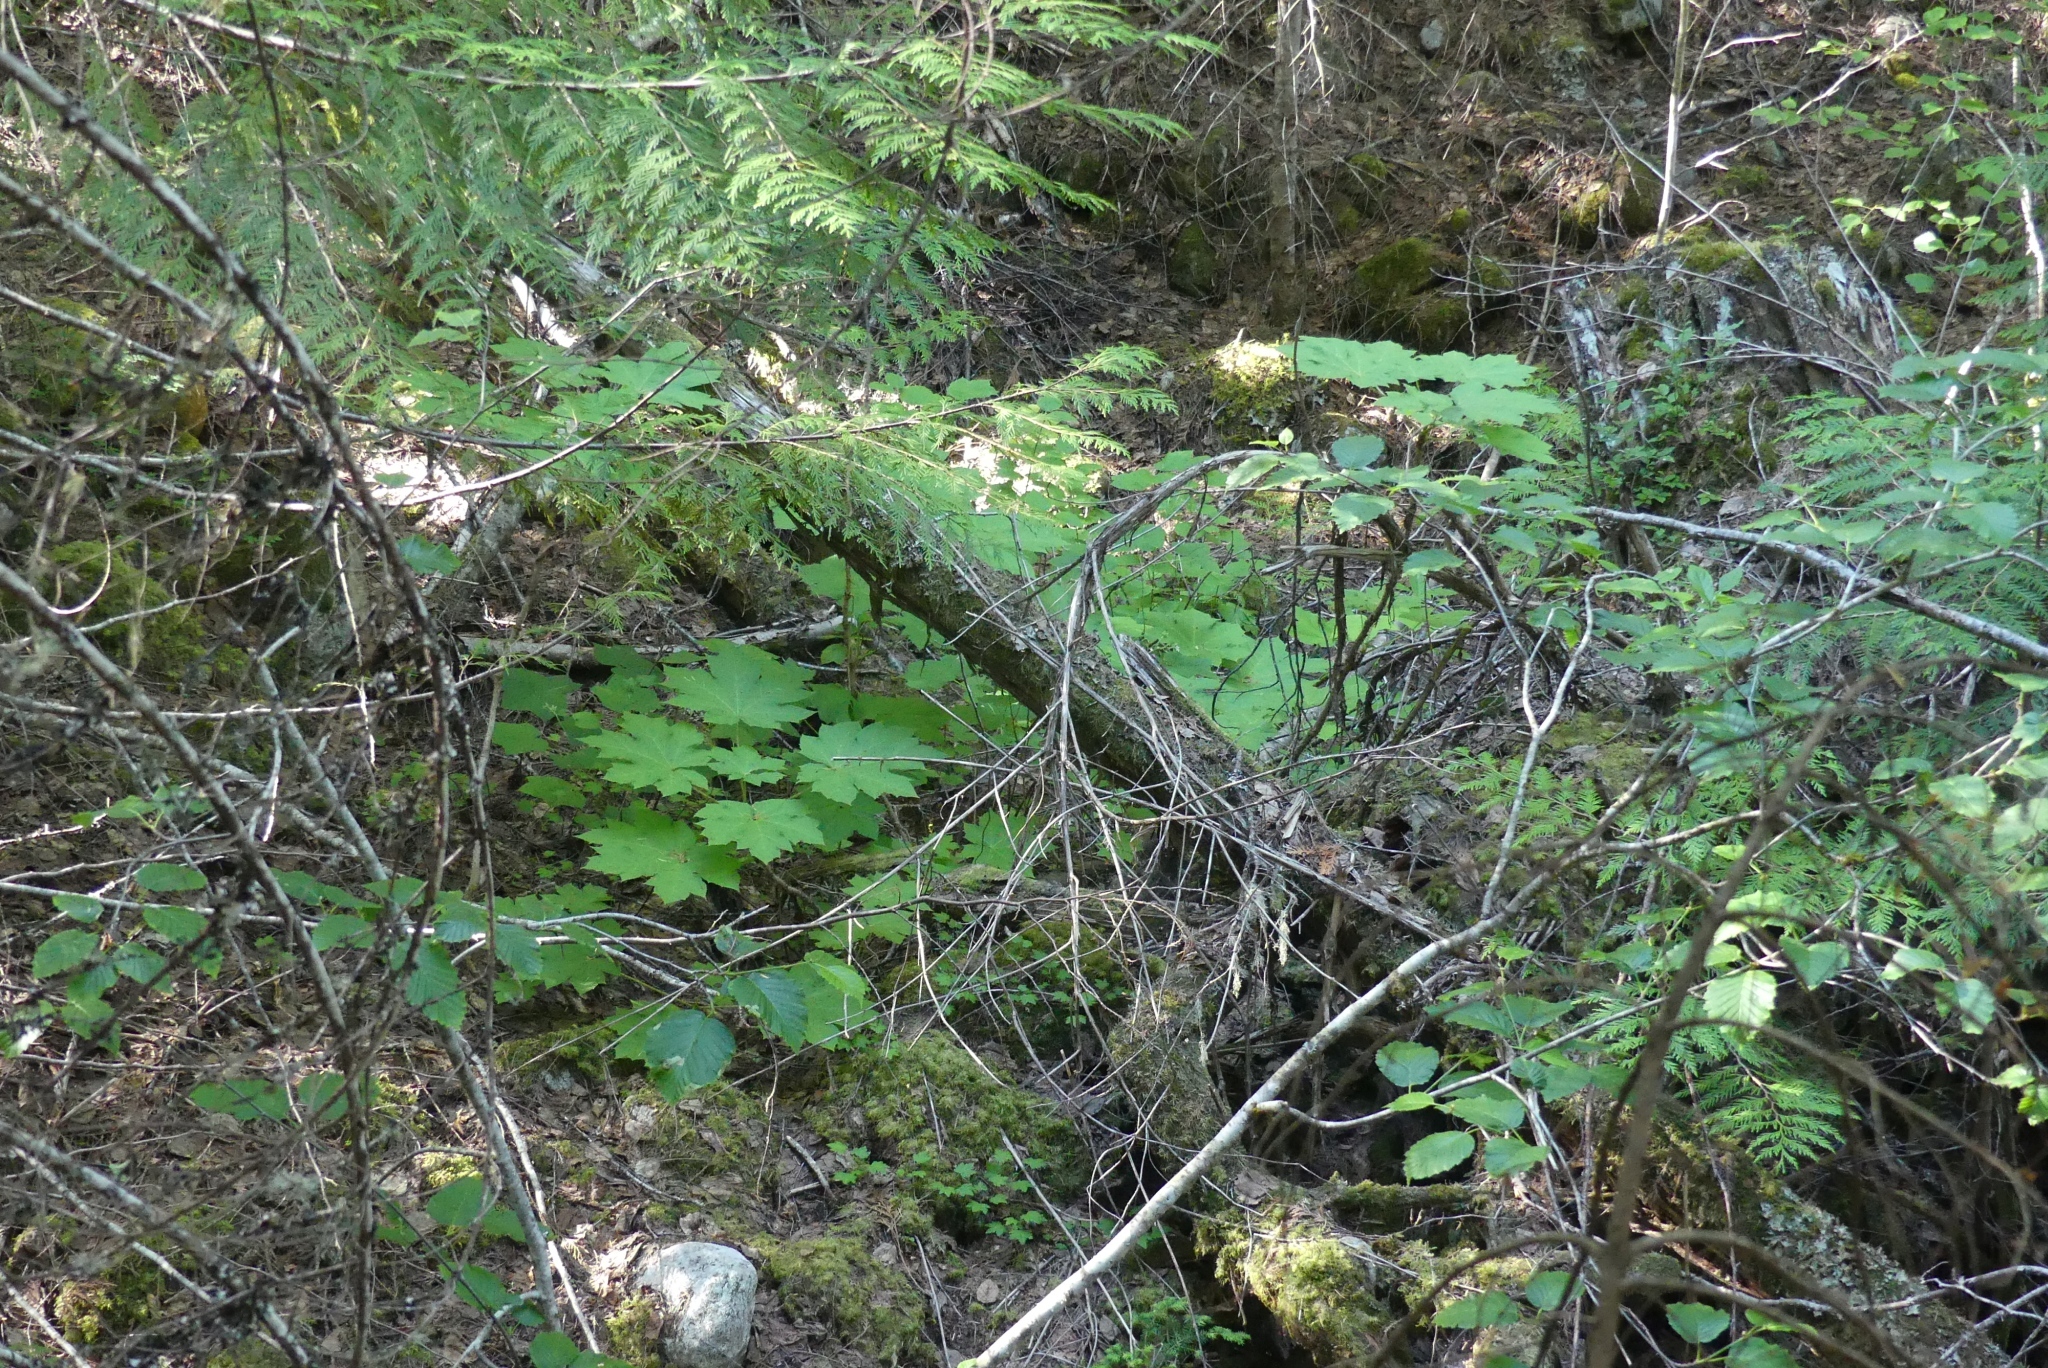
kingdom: Plantae
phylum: Tracheophyta
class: Magnoliopsida
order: Apiales
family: Araliaceae
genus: Oplopanax
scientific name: Oplopanax horridus
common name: Devil's walking-stick
